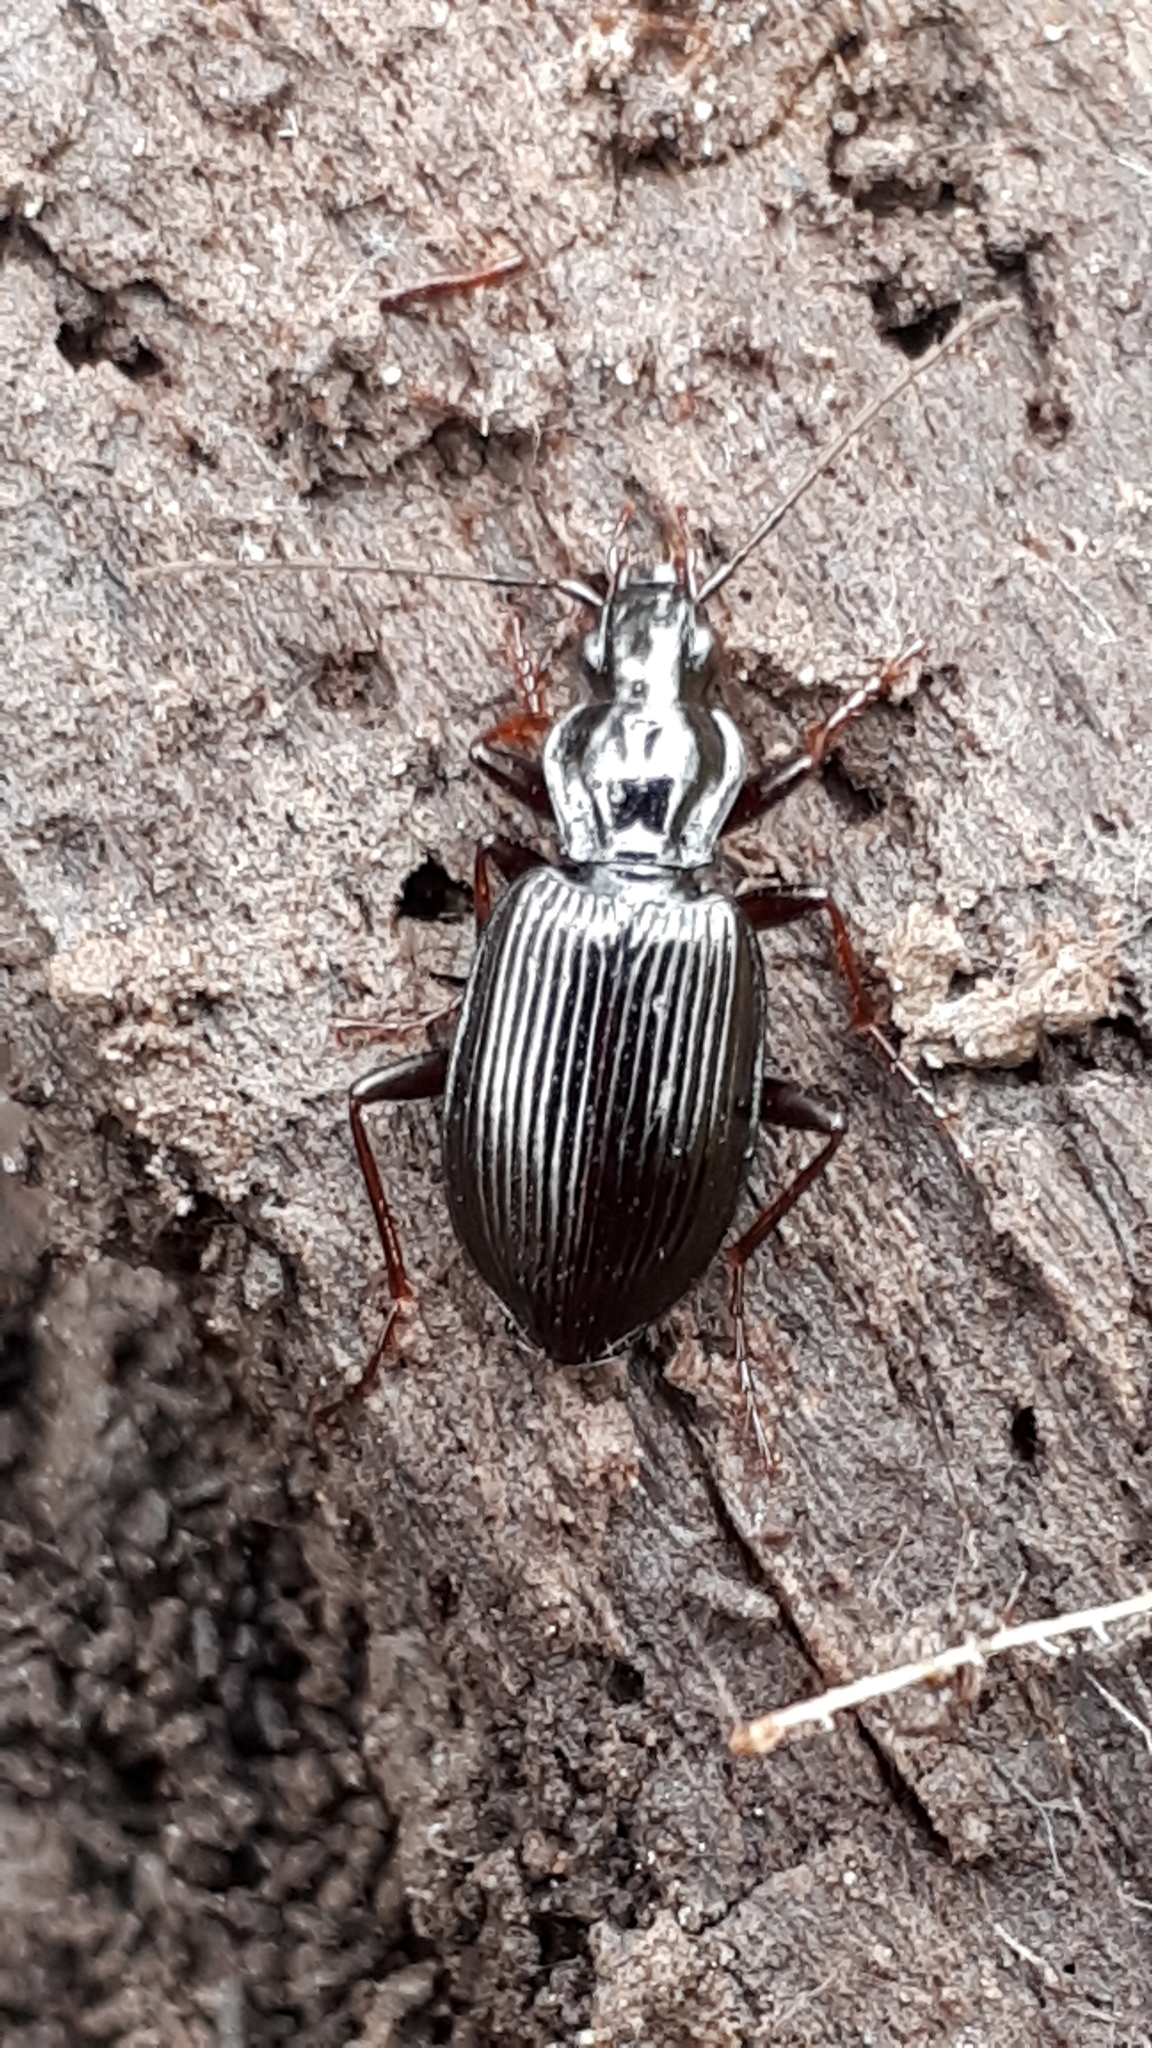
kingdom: Animalia
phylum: Arthropoda
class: Insecta
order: Coleoptera
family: Carabidae
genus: Platynus
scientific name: Platynus assimilis
